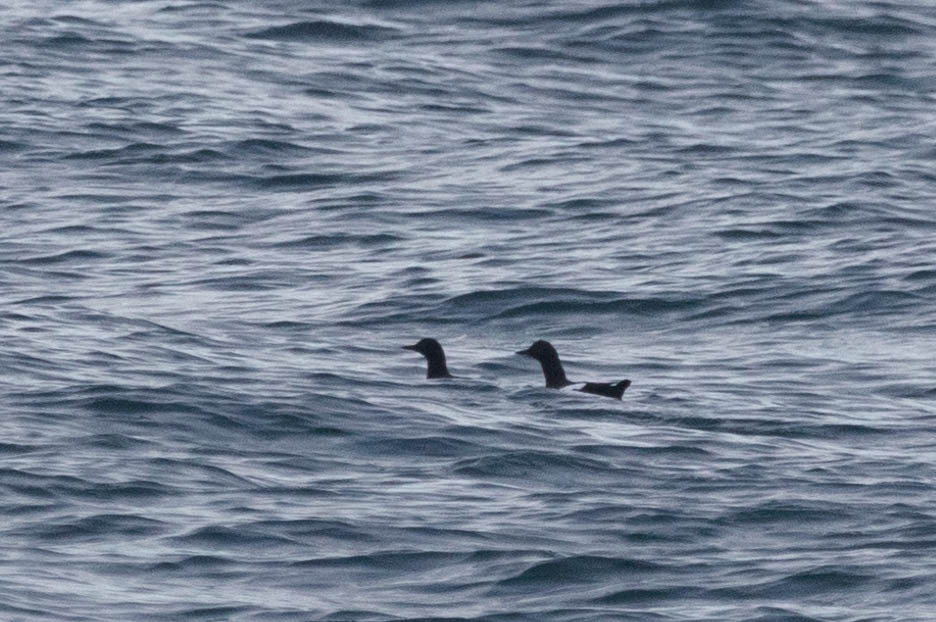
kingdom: Animalia
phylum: Chordata
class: Aves
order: Charadriiformes
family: Alcidae
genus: Cepphus
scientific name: Cepphus columba
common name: Pigeon guillemot
